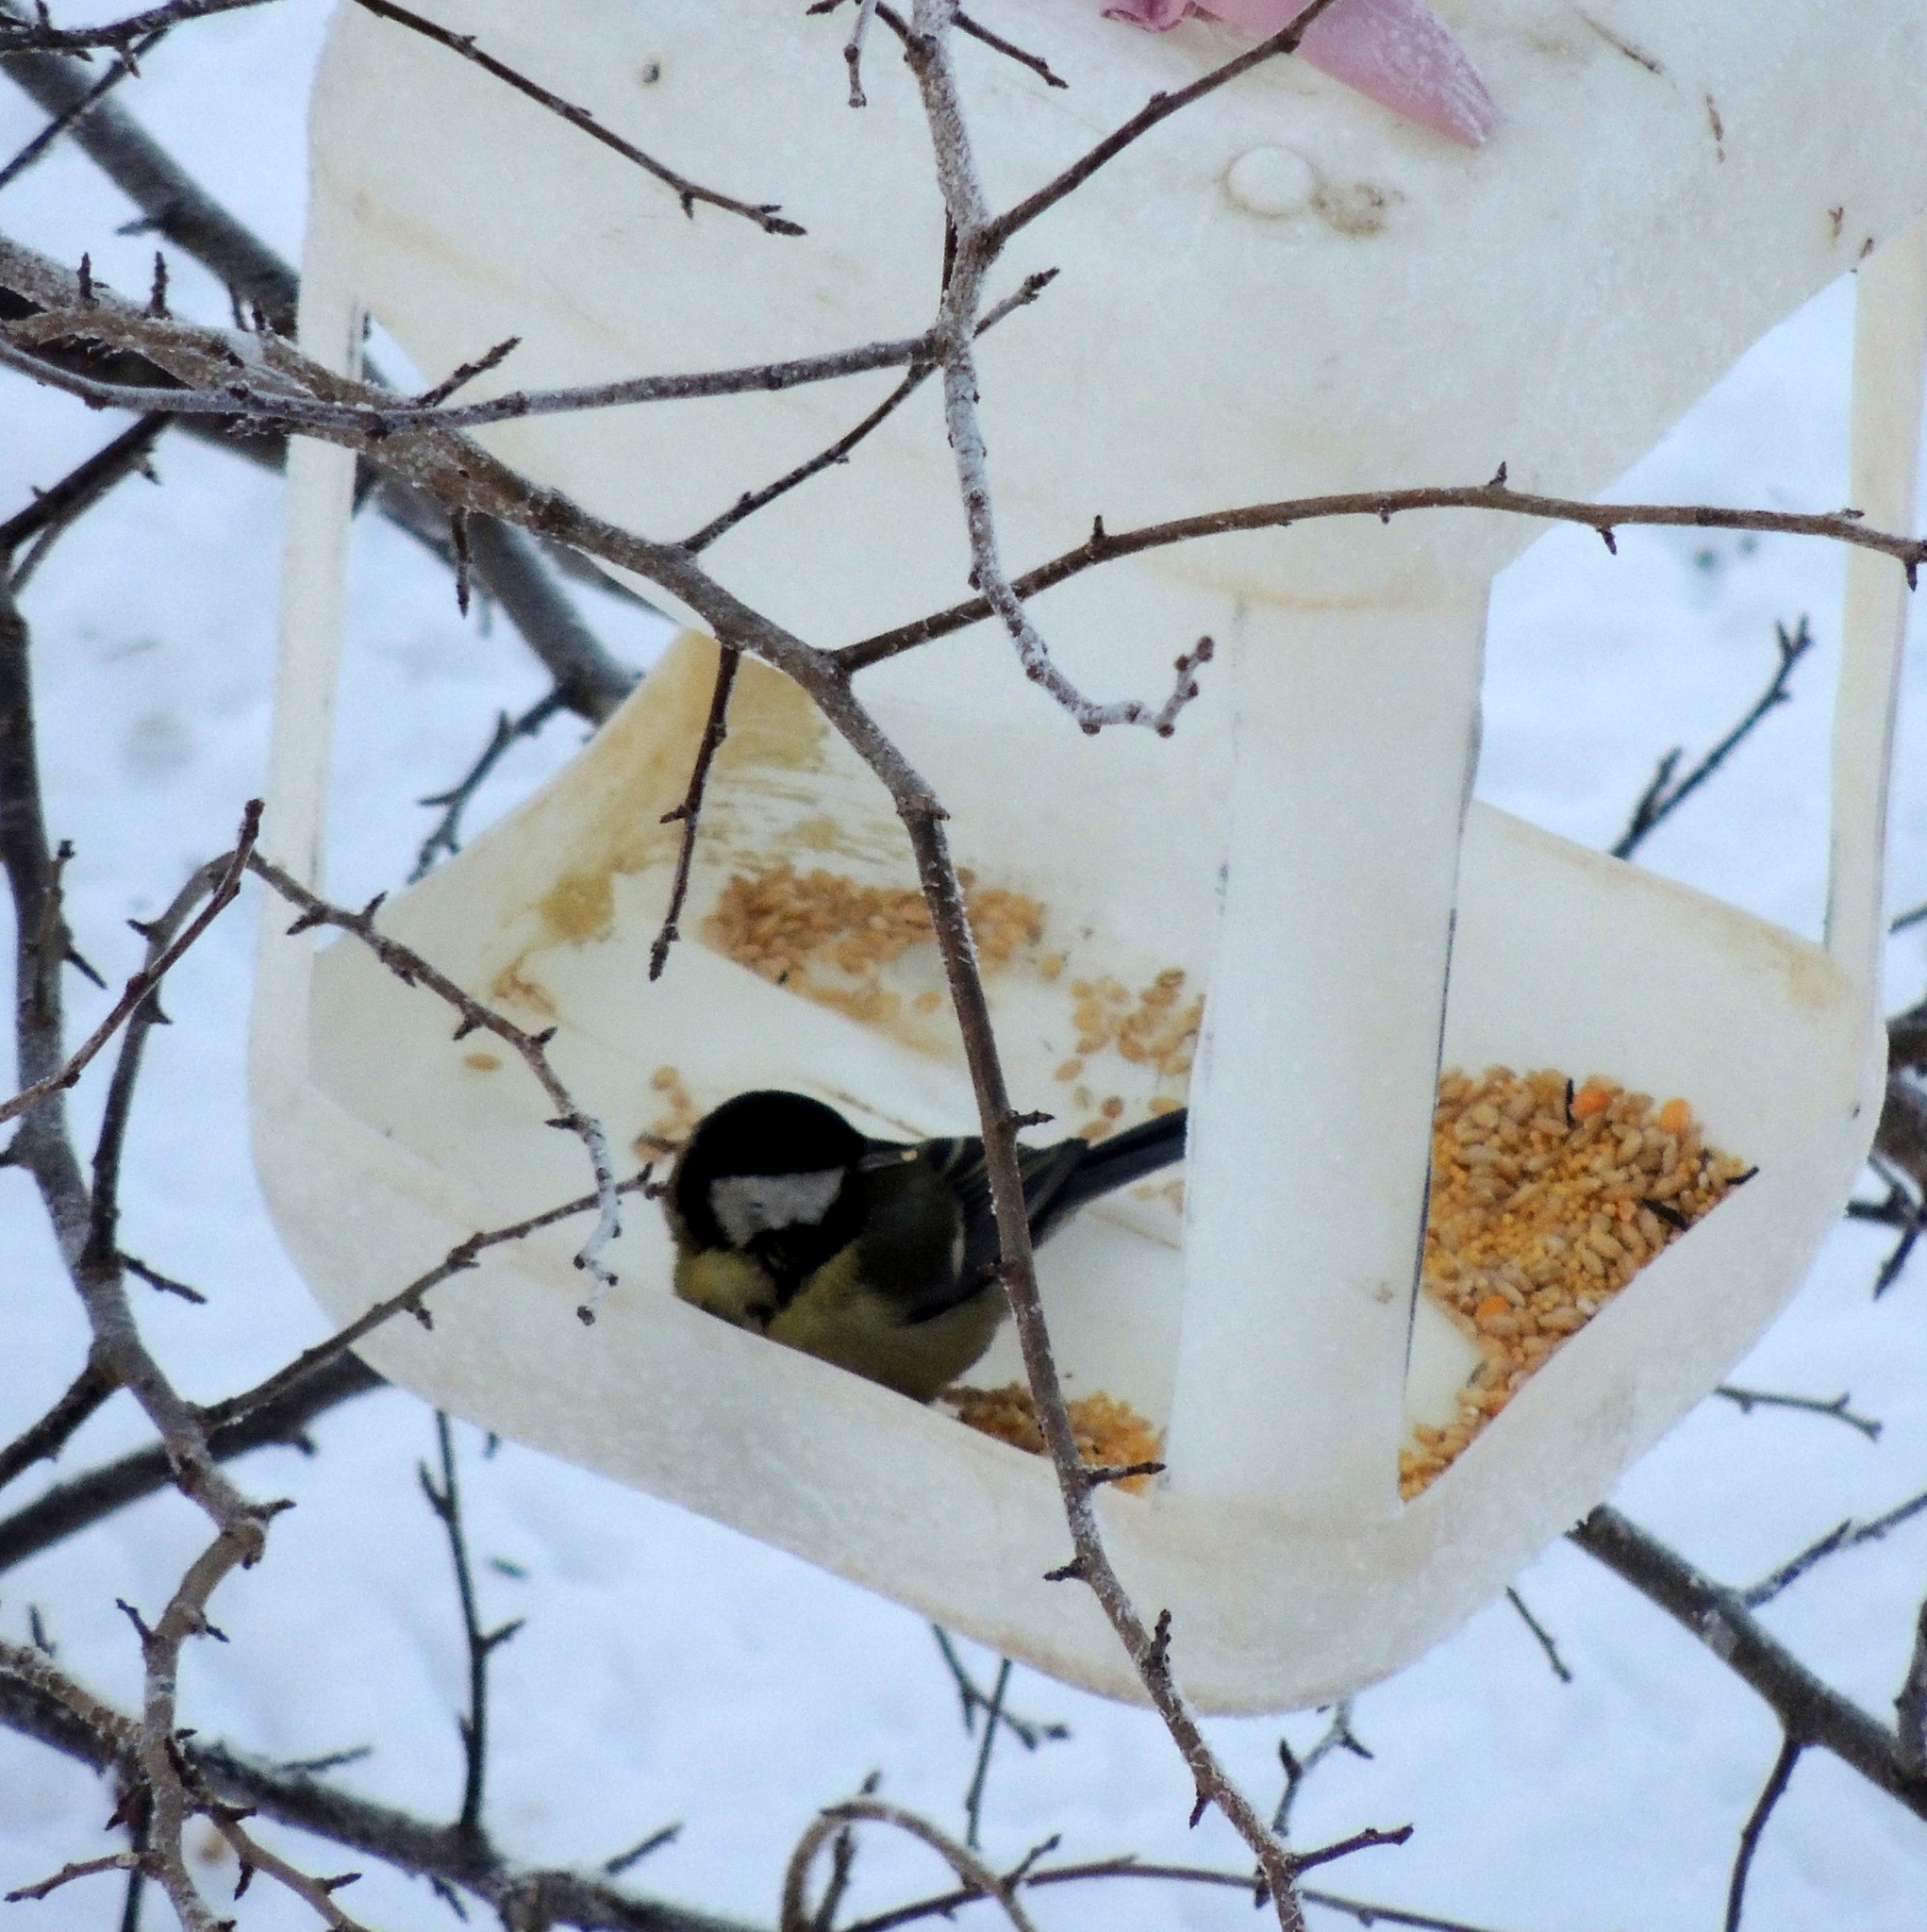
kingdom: Animalia
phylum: Chordata
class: Aves
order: Passeriformes
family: Paridae
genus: Parus
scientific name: Parus major
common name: Great tit
